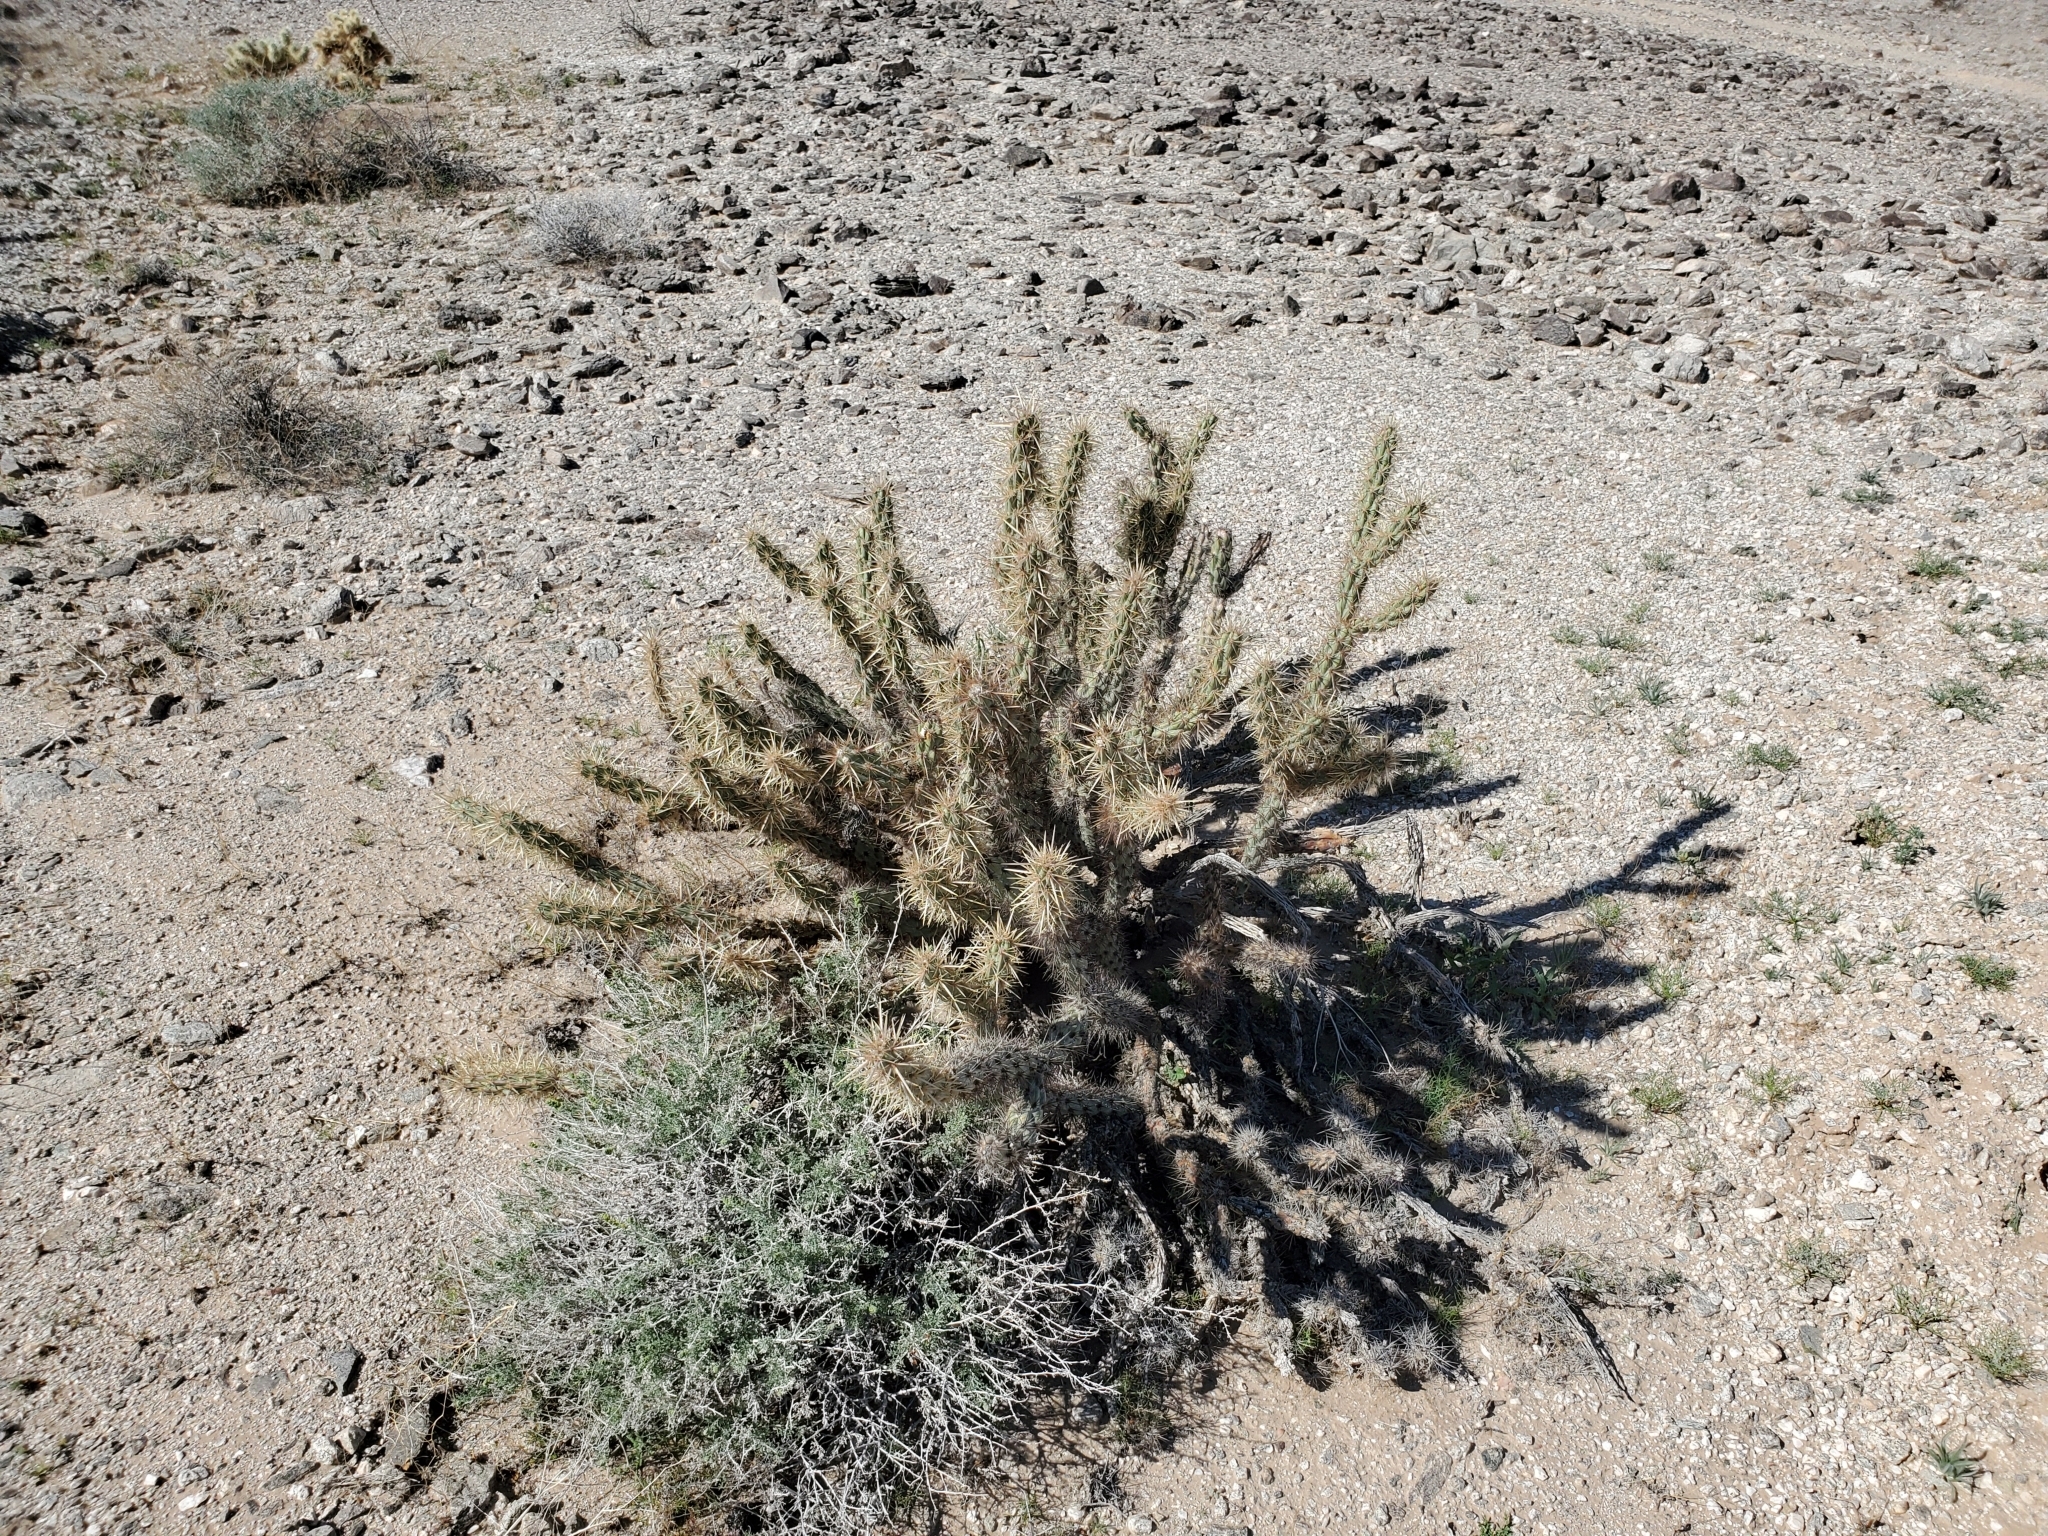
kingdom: Plantae
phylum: Tracheophyta
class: Magnoliopsida
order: Caryophyllales
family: Cactaceae
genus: Cylindropuntia
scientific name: Cylindropuntia acanthocarpa
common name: Buckhorn cholla
